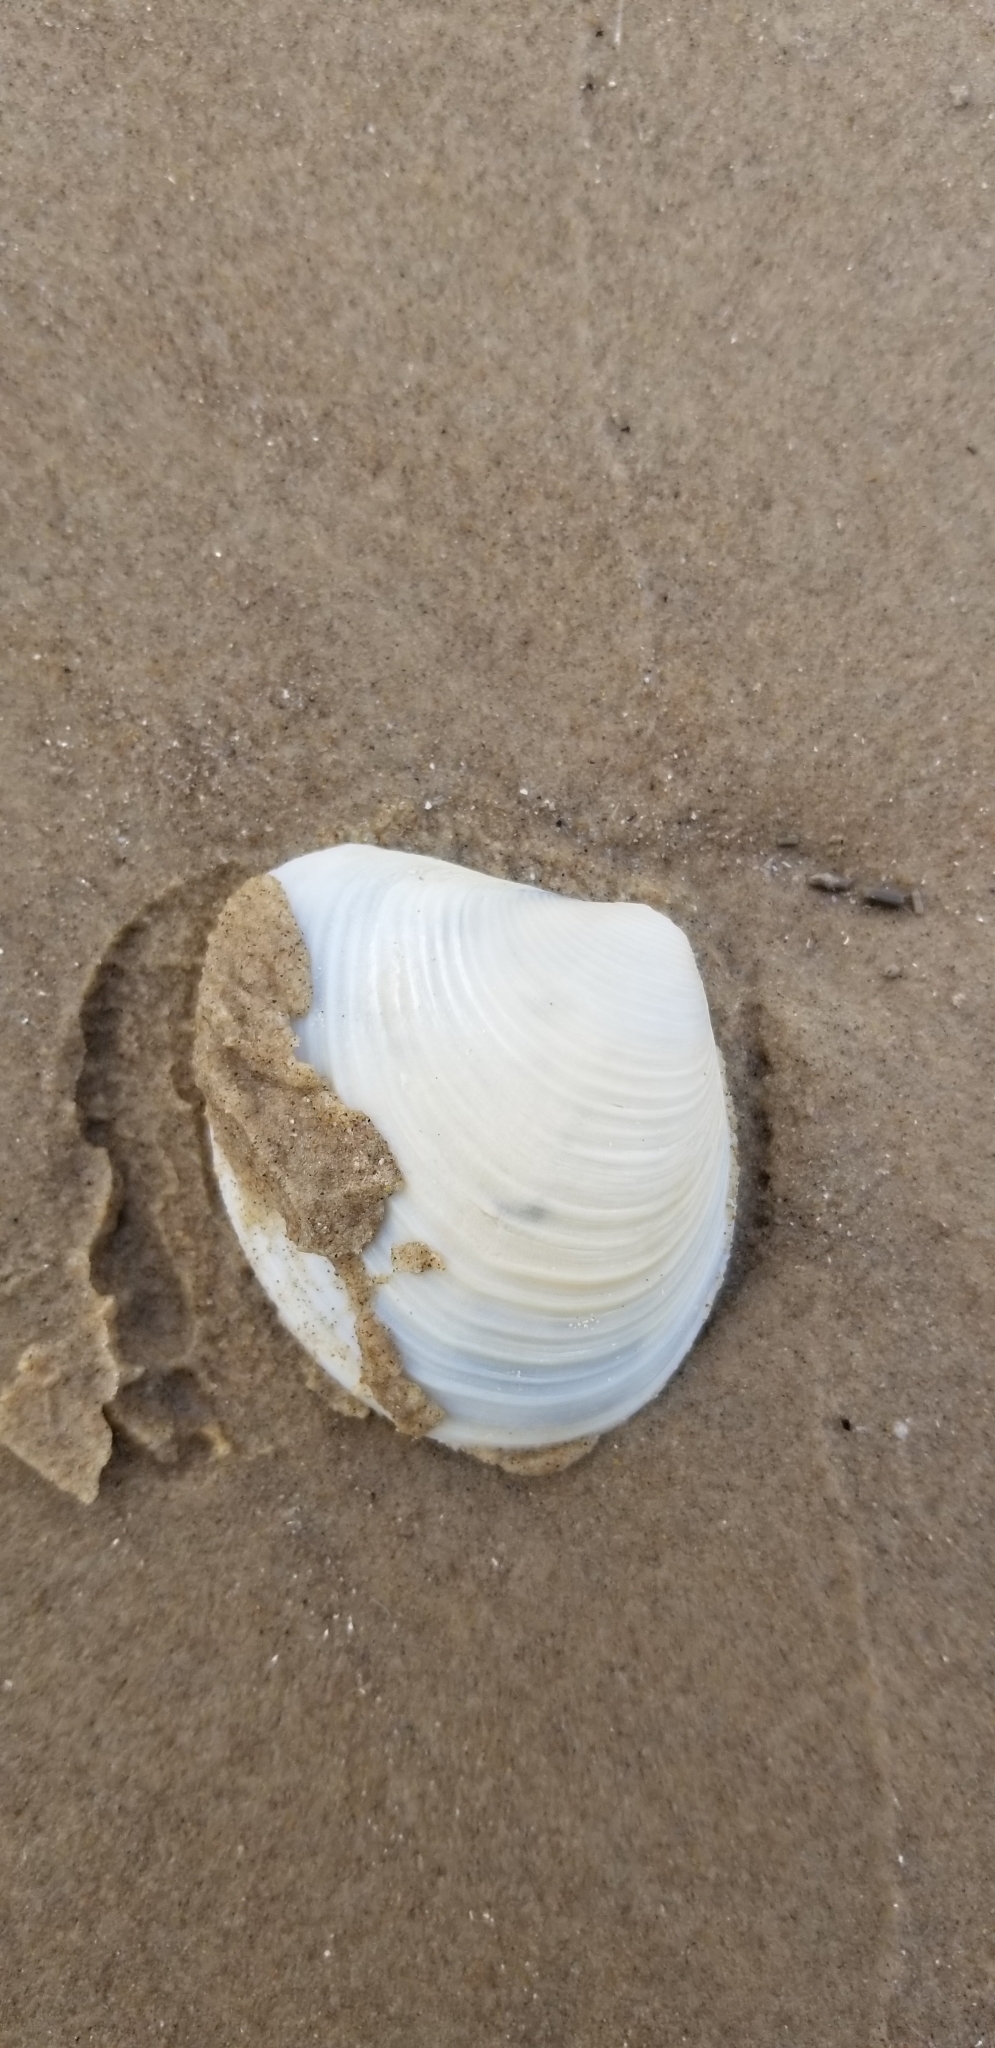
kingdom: Animalia
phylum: Mollusca
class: Bivalvia
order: Venerida
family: Anatinellidae
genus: Raeta
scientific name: Raeta plicatella
